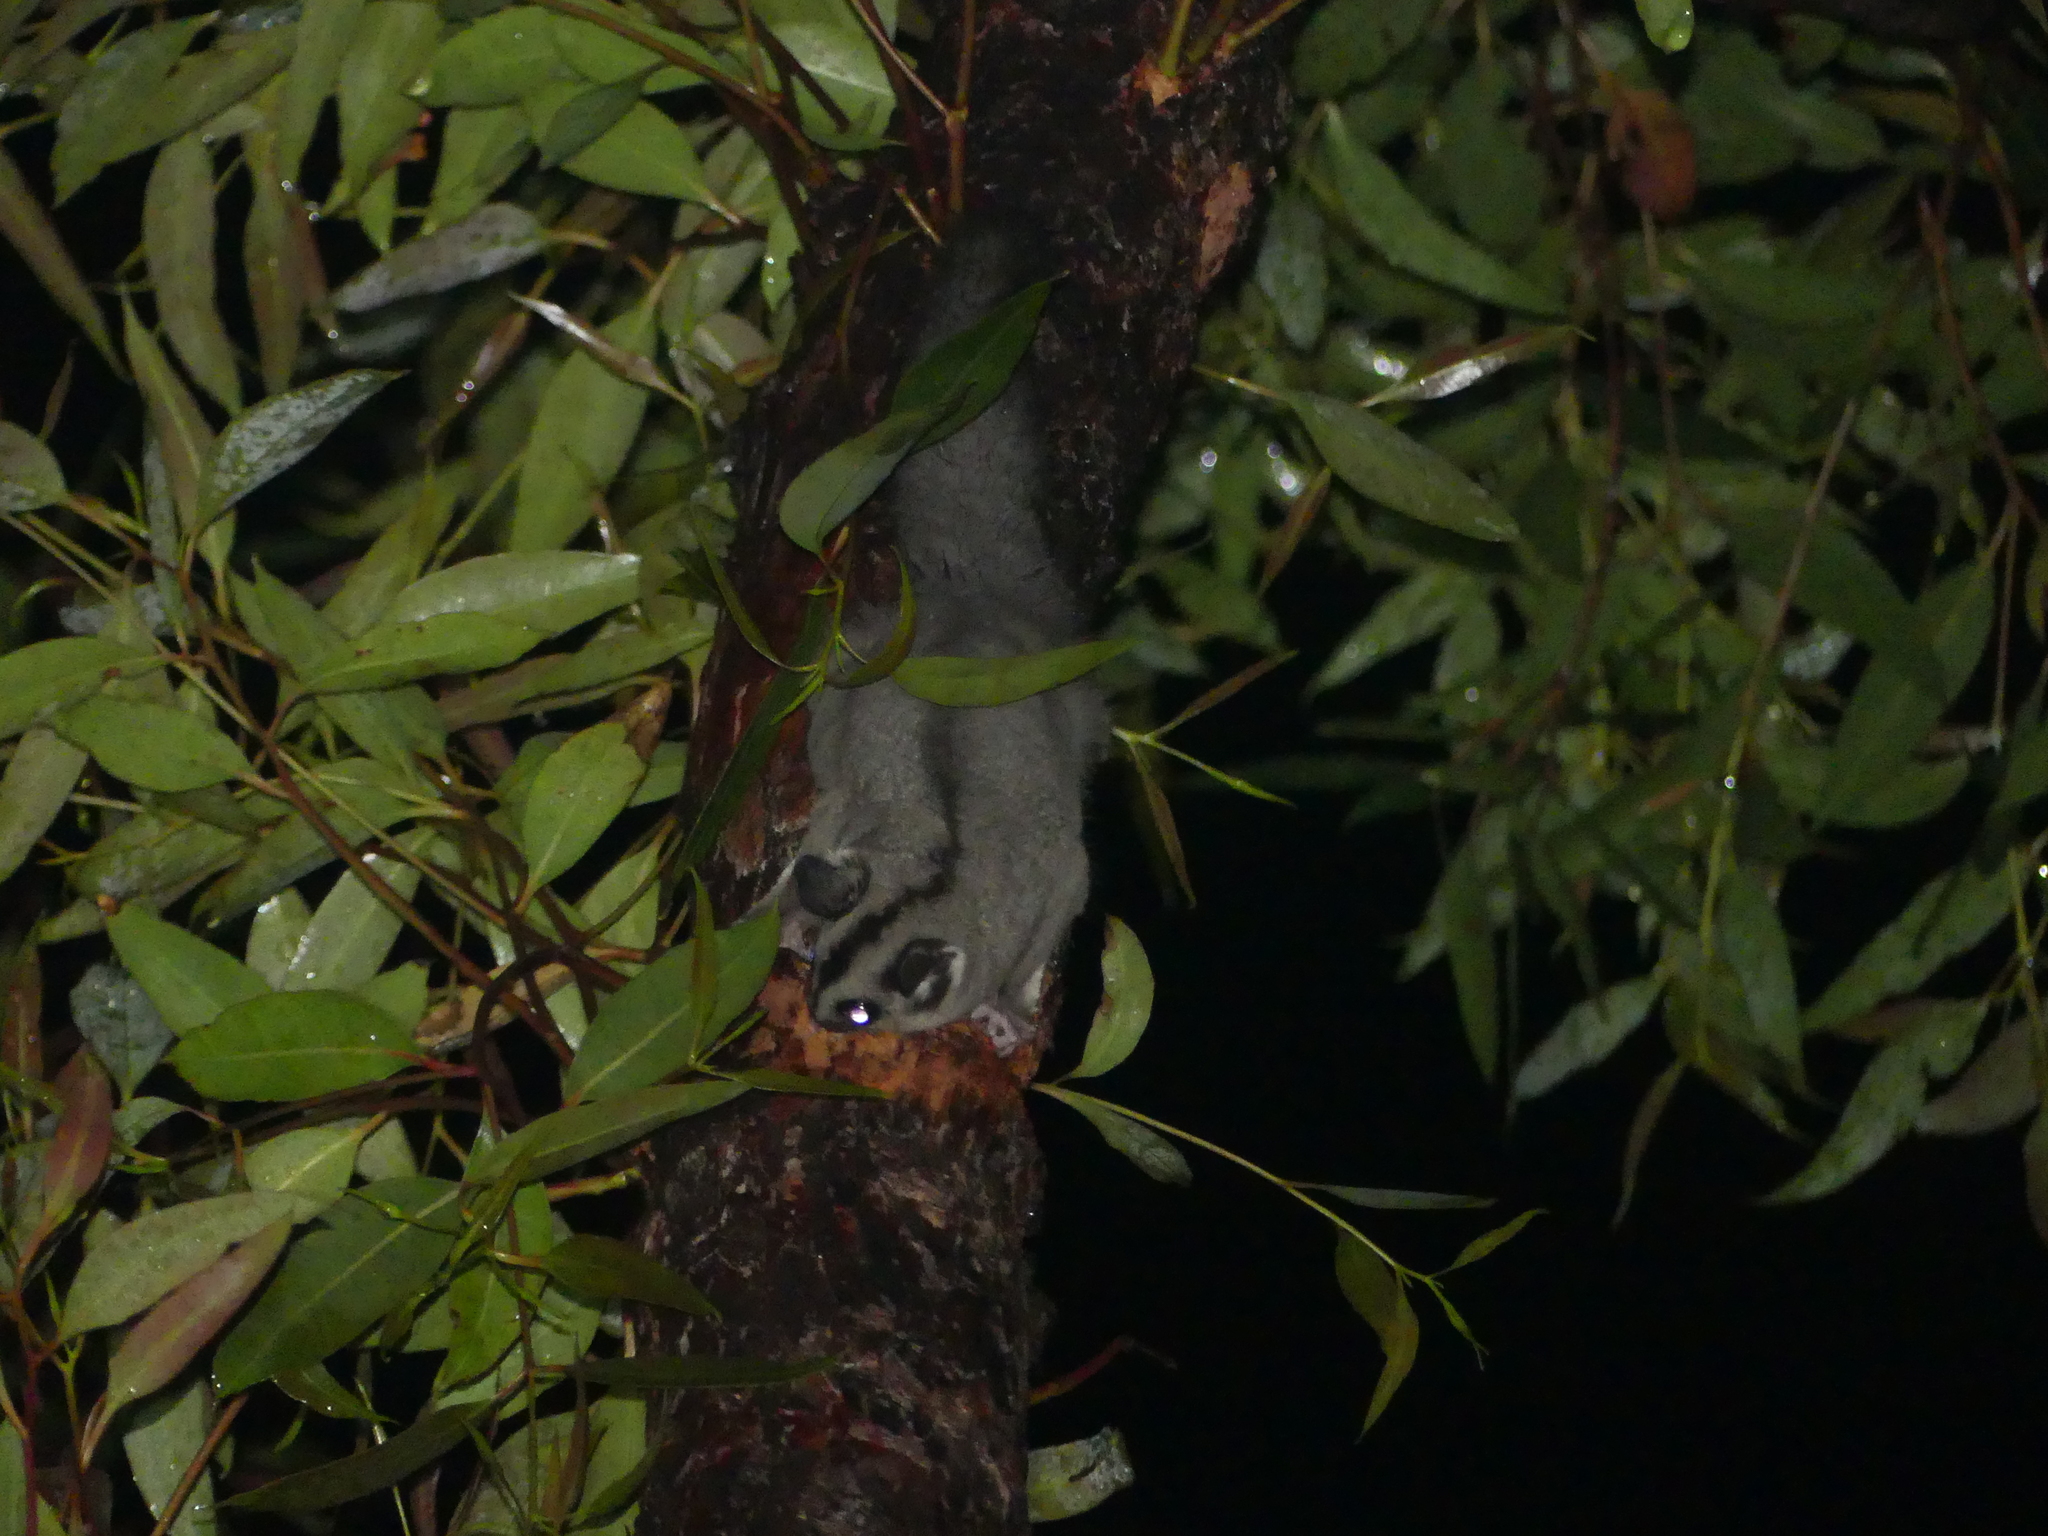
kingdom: Animalia
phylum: Chordata
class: Mammalia
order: Diprotodontia
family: Petauridae
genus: Petaurus
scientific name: Petaurus breviceps
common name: Sugar glider
